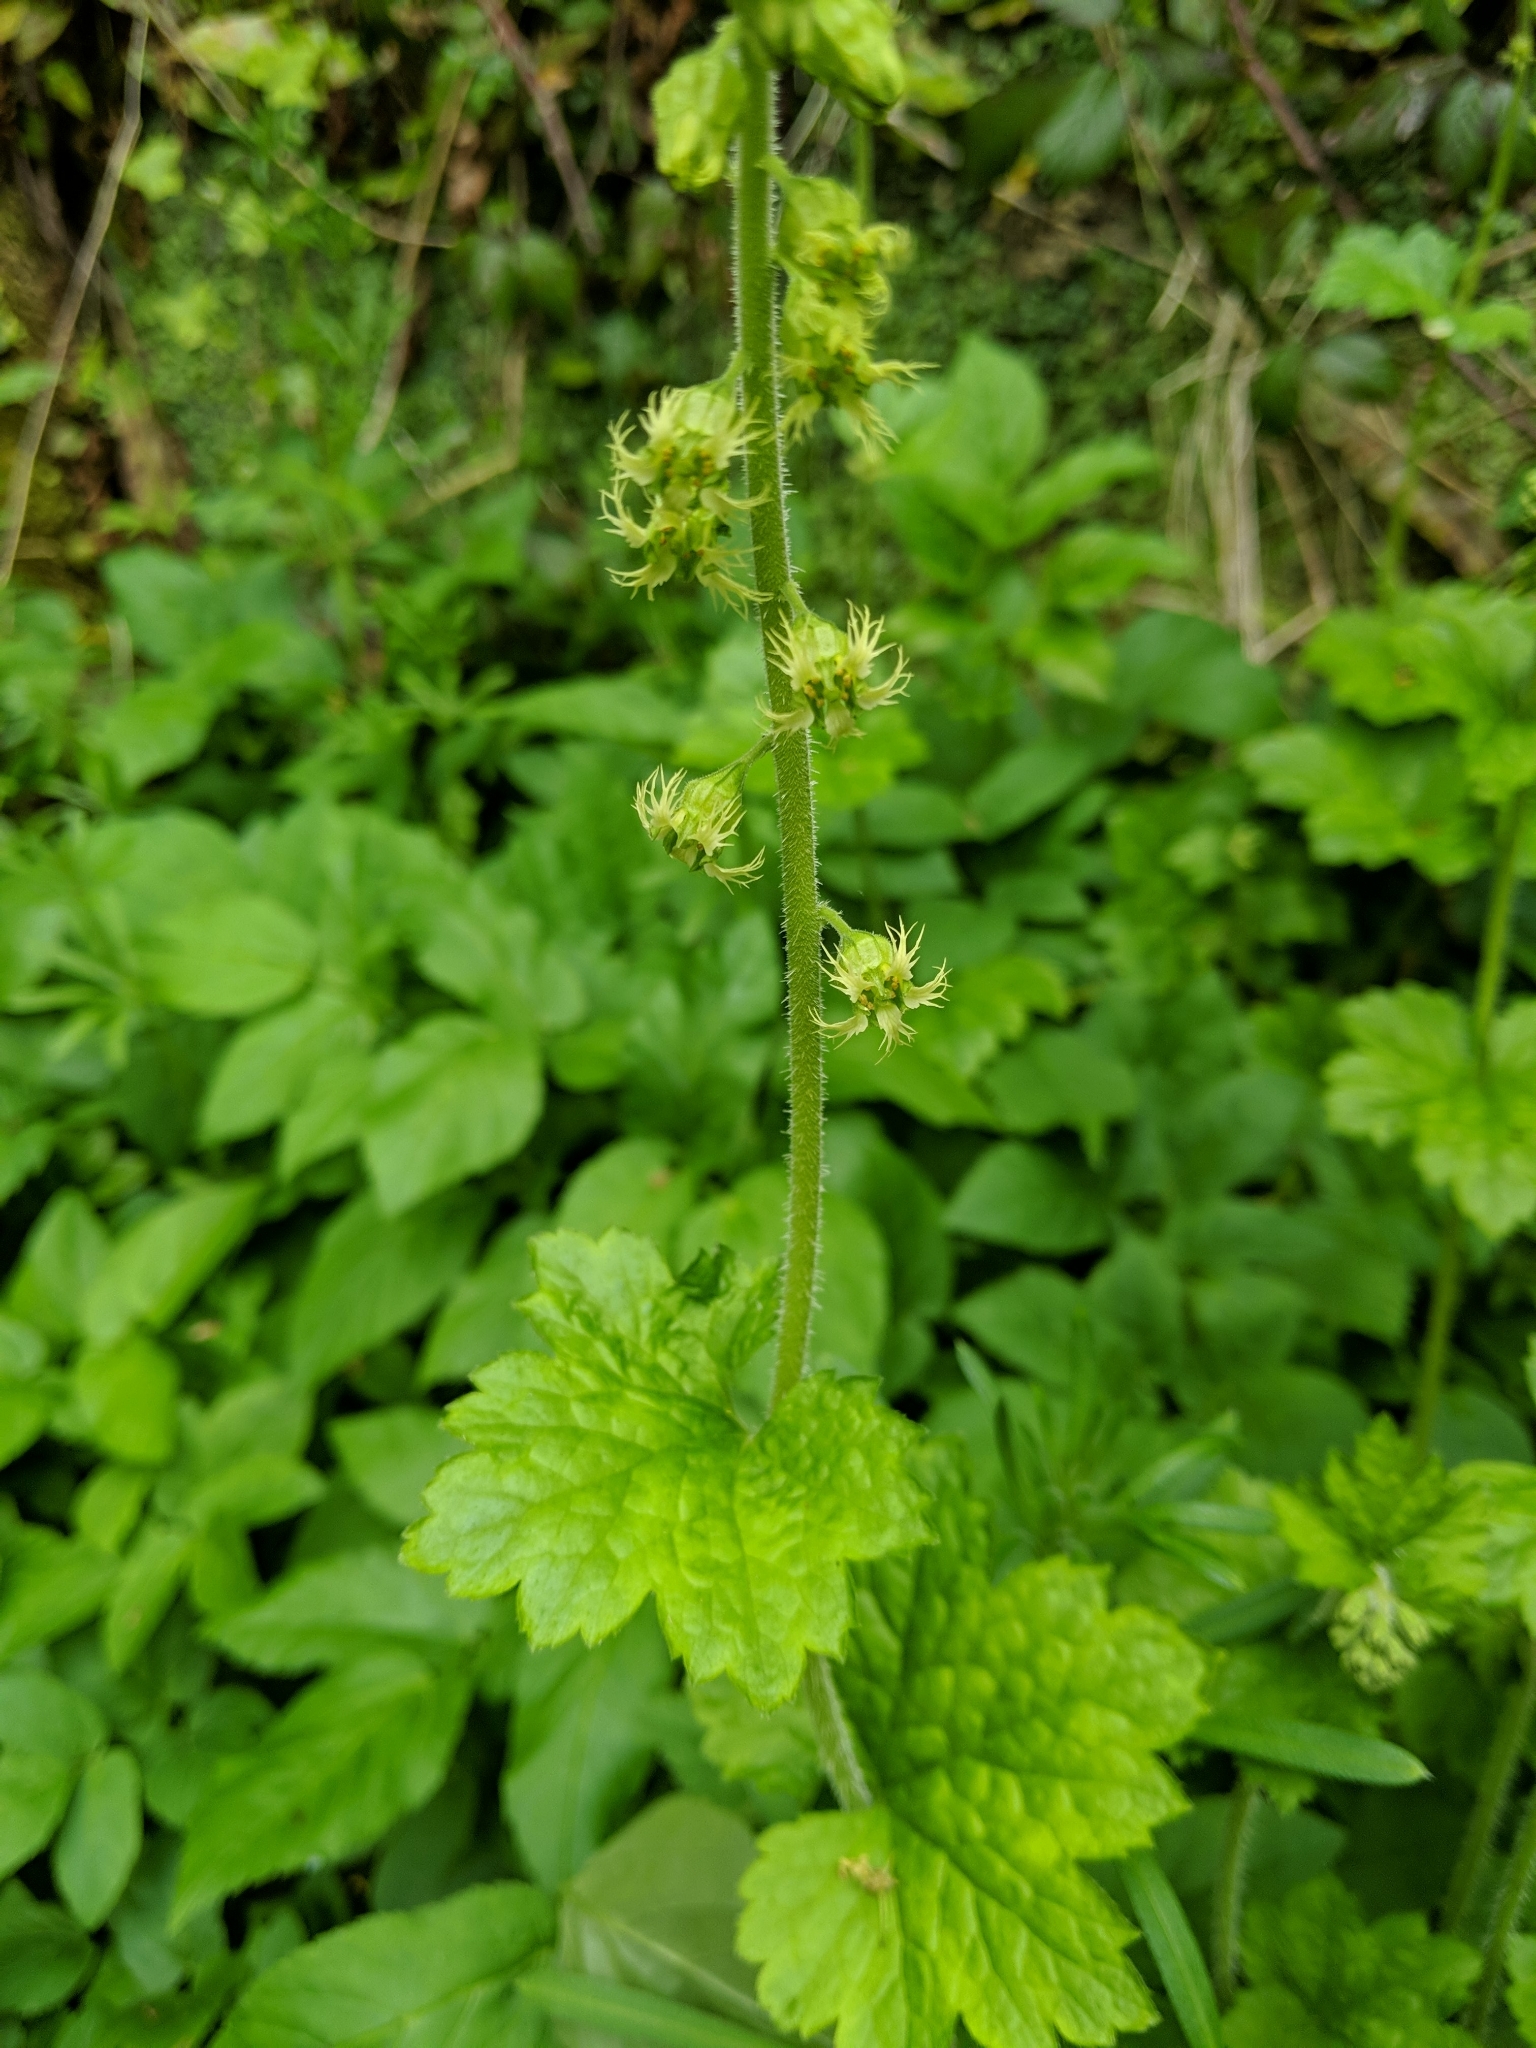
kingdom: Plantae
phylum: Tracheophyta
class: Magnoliopsida
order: Saxifragales
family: Saxifragaceae
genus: Tellima
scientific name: Tellima grandiflora
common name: Fringecups
